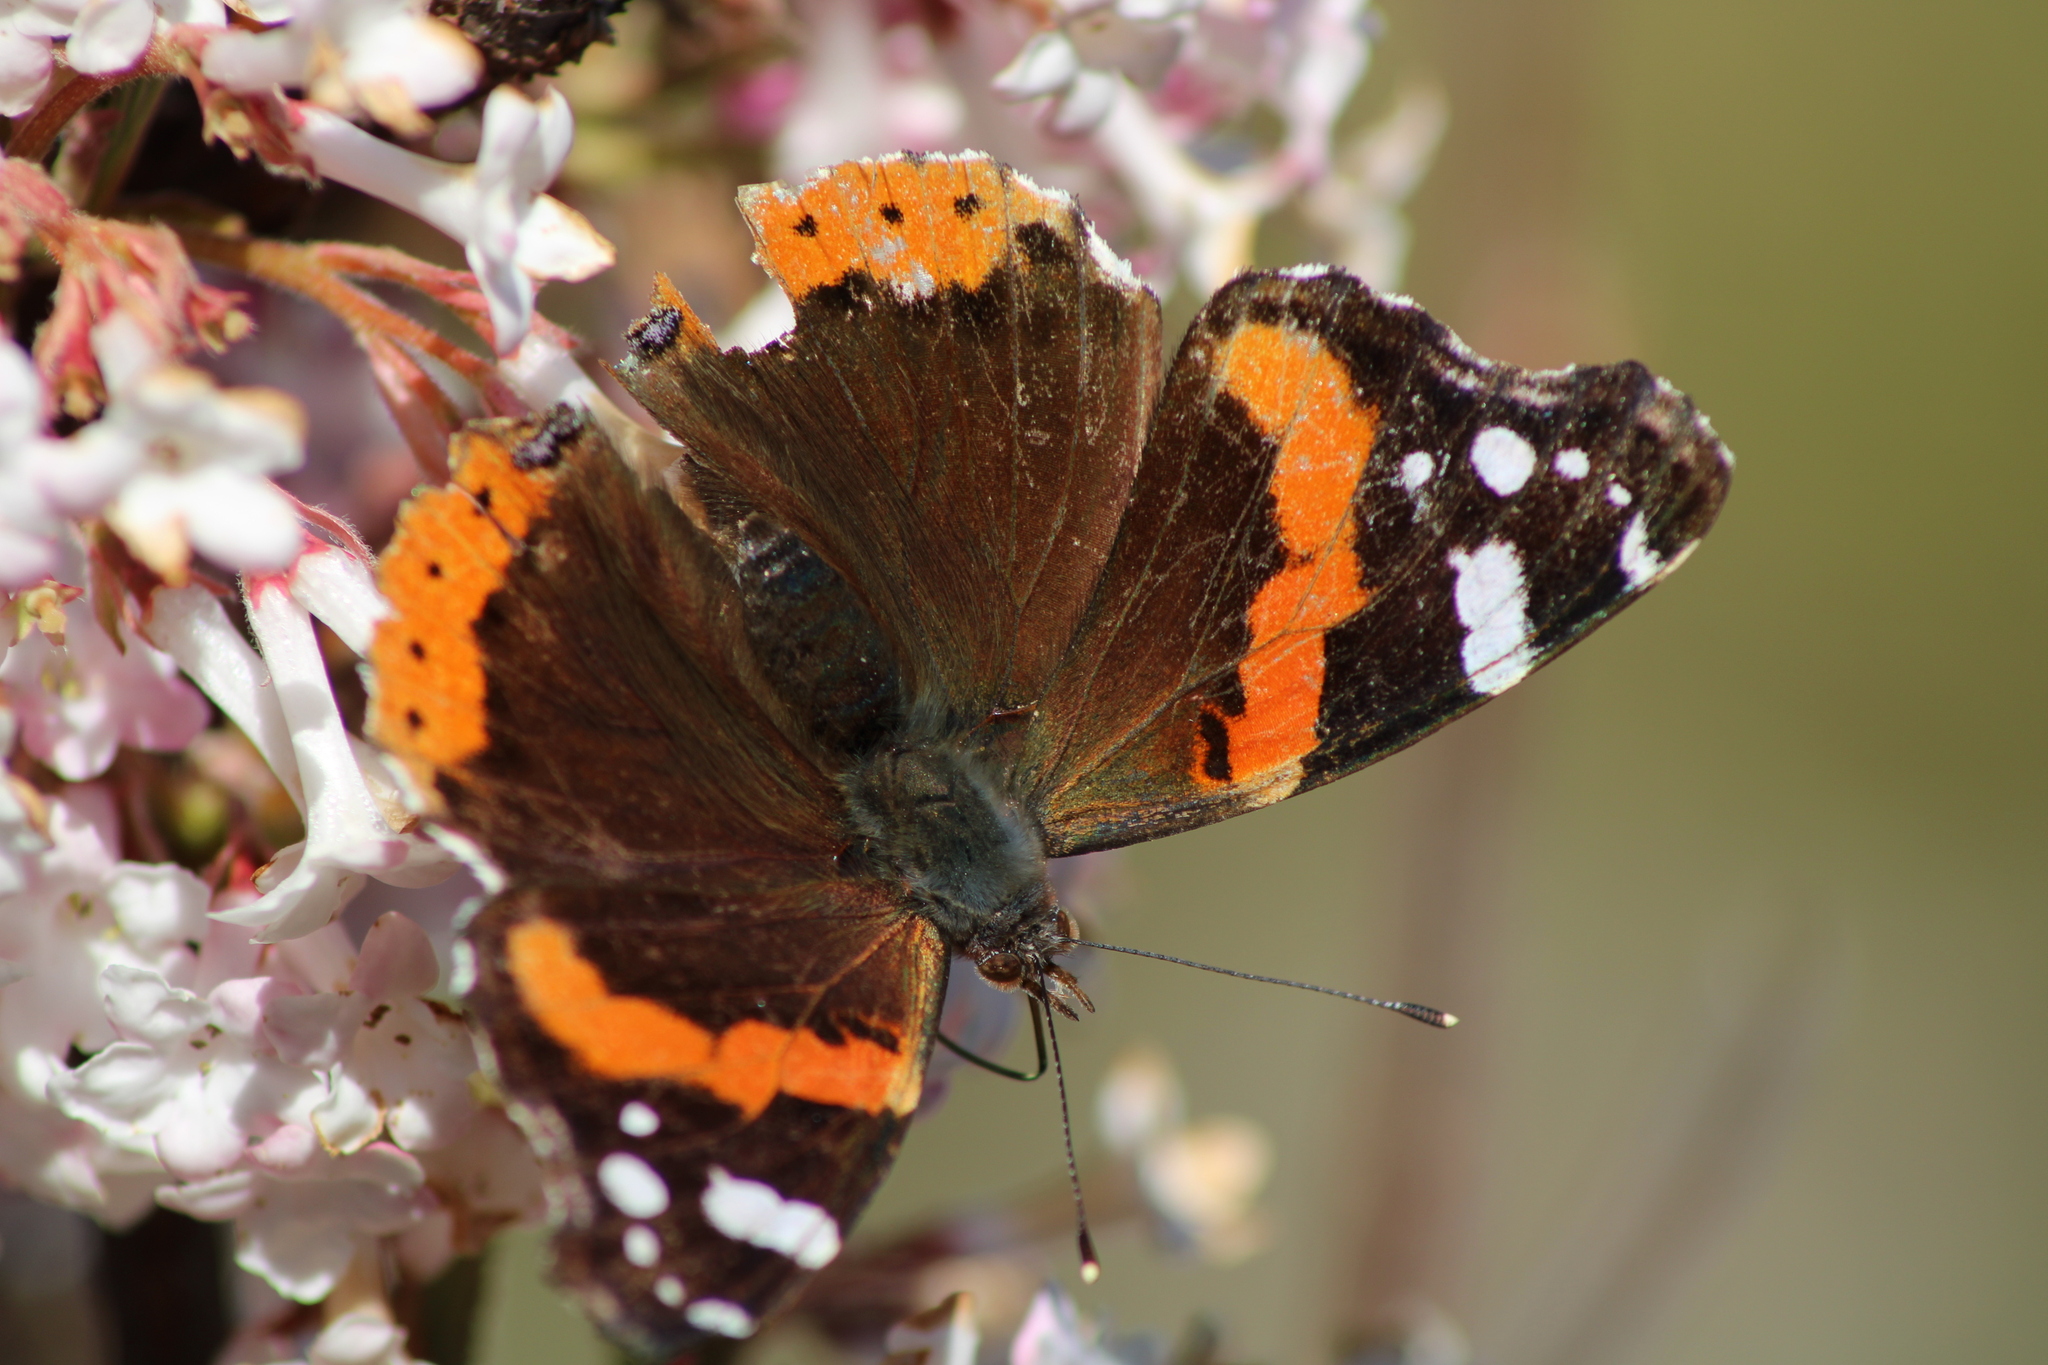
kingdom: Animalia
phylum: Arthropoda
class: Insecta
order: Lepidoptera
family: Nymphalidae
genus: Vanessa
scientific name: Vanessa atalanta
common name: Red admiral
